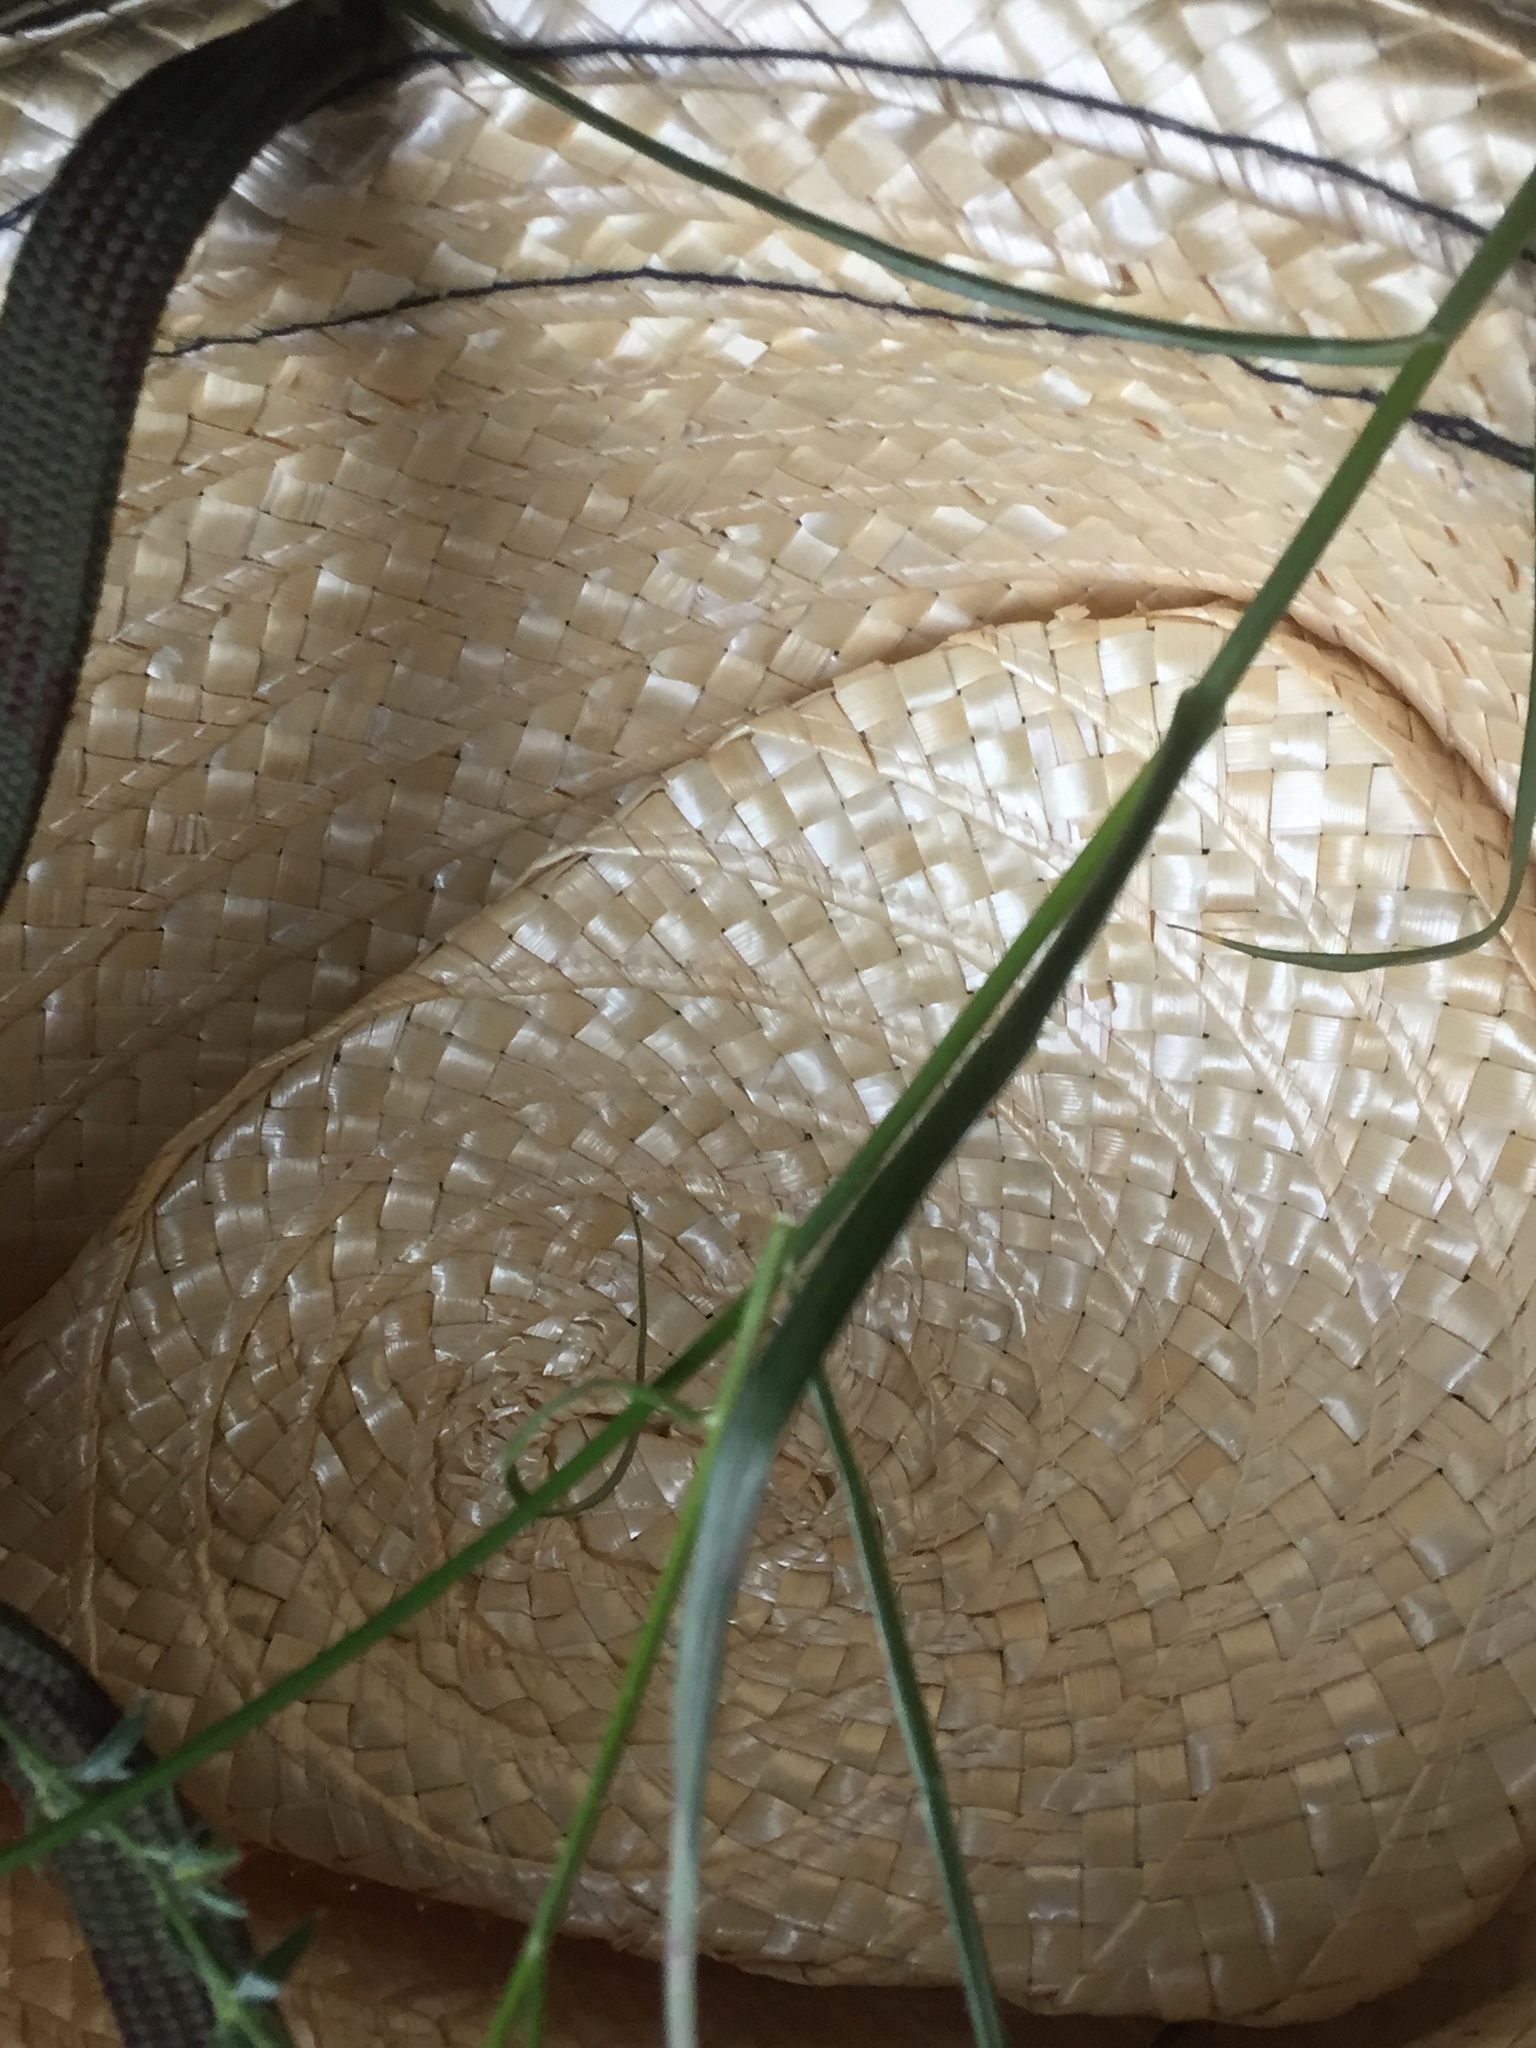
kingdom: Plantae
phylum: Tracheophyta
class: Liliopsida
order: Poales
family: Cyperaceae
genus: Blysmus
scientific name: Blysmus compressus
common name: Flat-sedge
